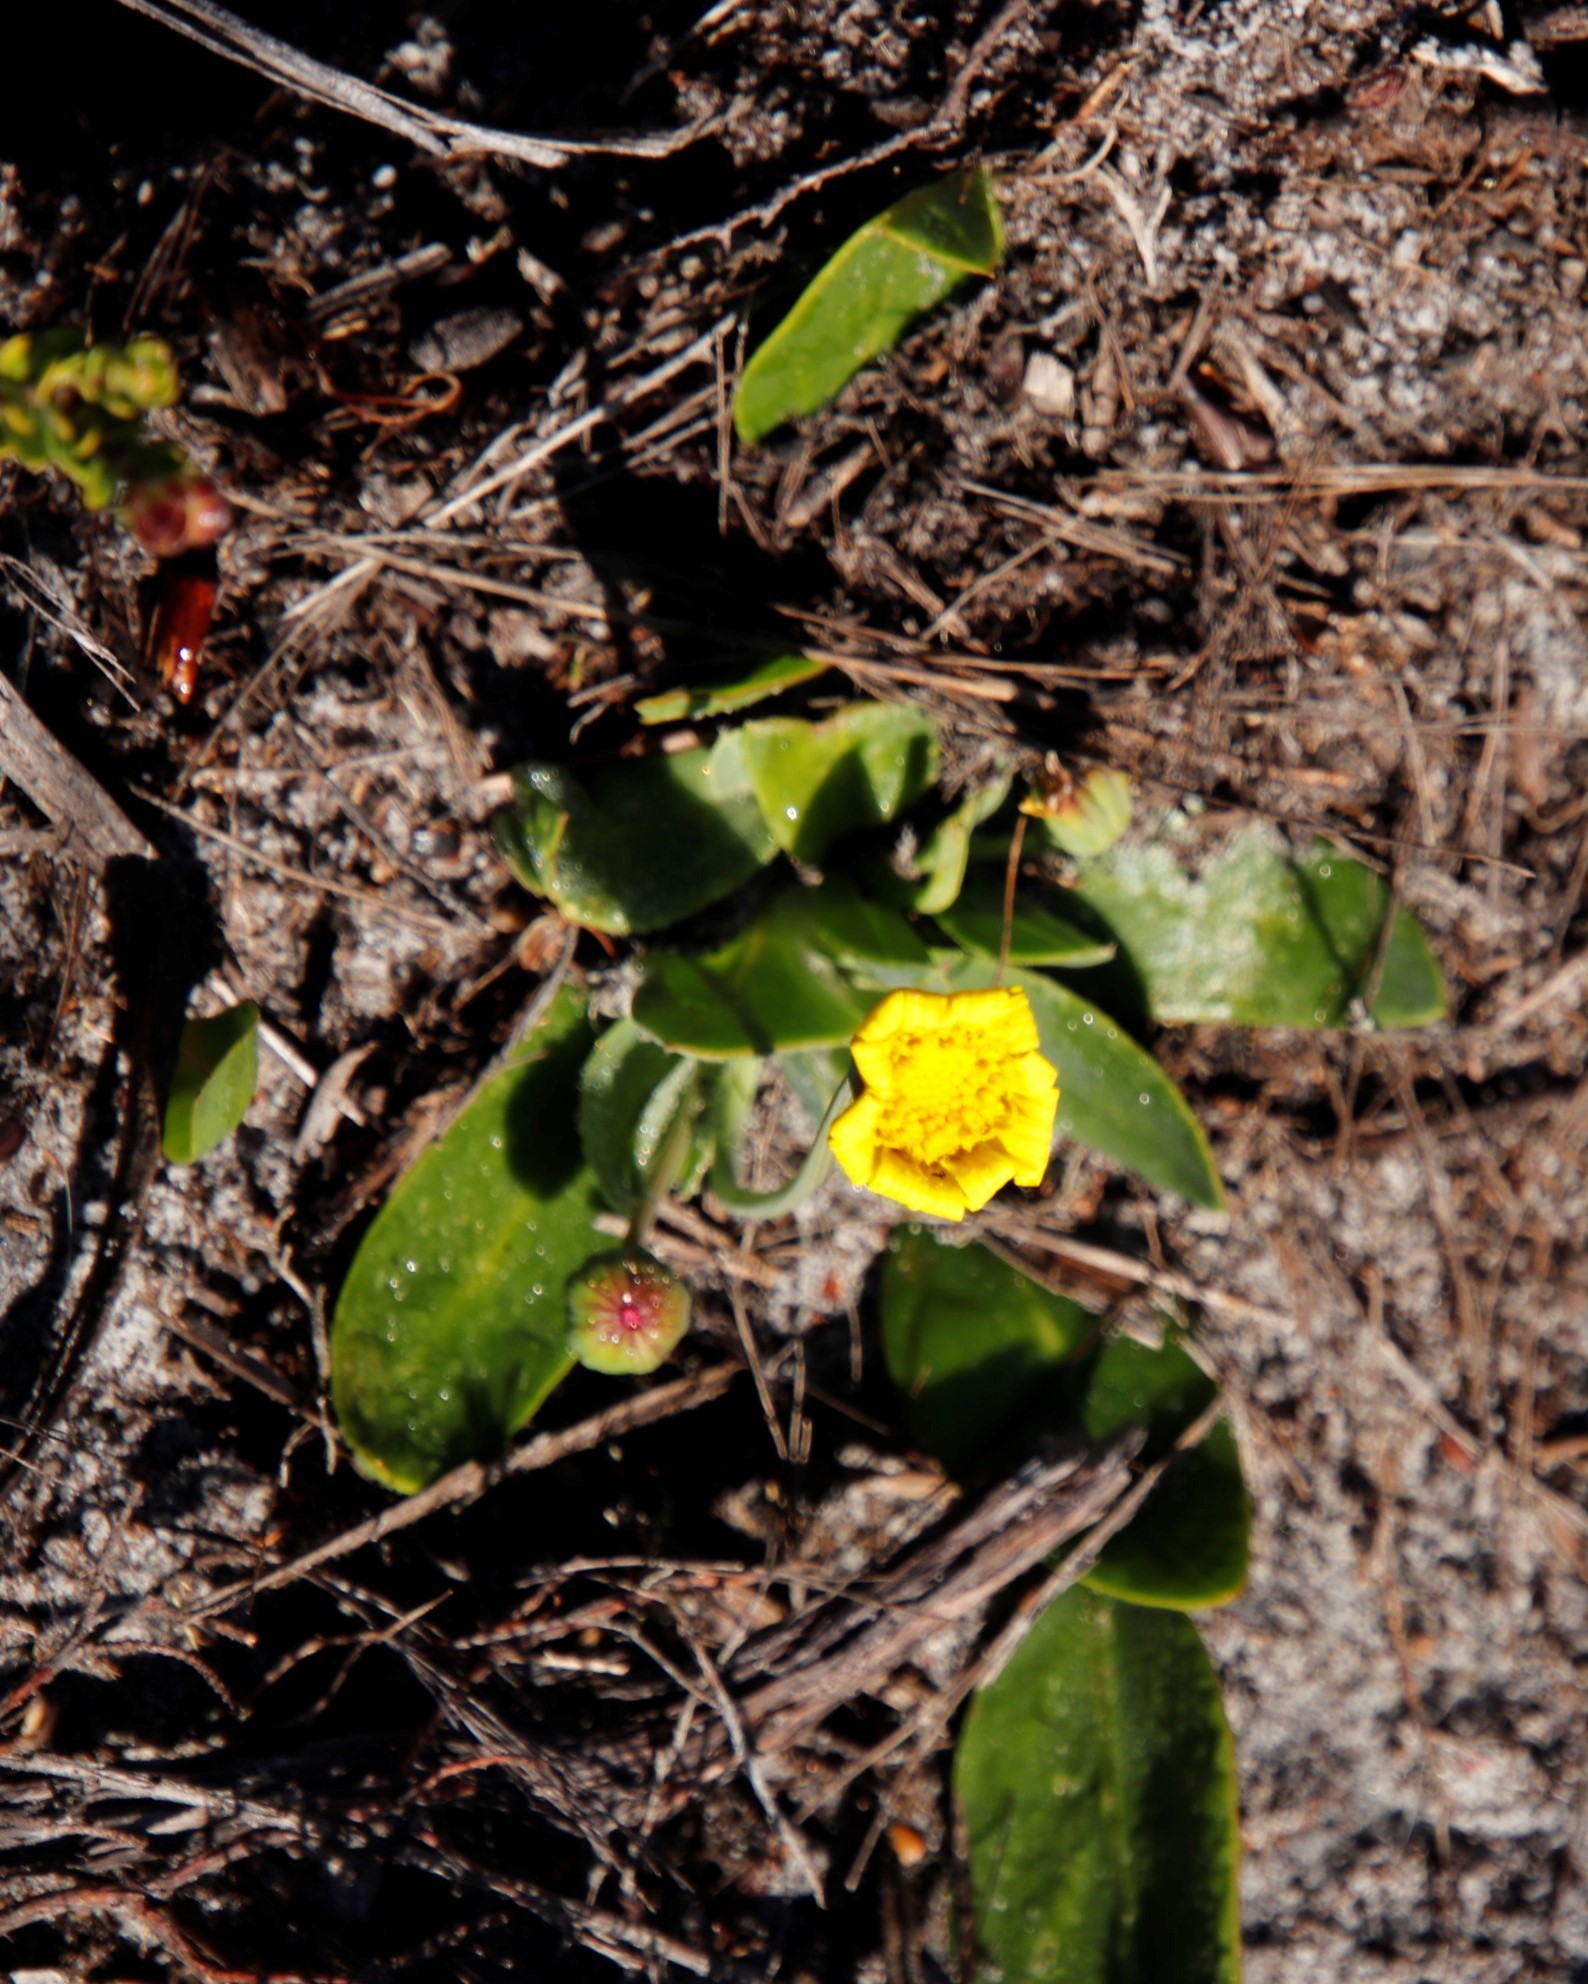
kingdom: Plantae
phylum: Tracheophyta
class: Magnoliopsida
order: Asterales
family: Asteraceae
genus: Othonna
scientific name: Othonna bulbosa
